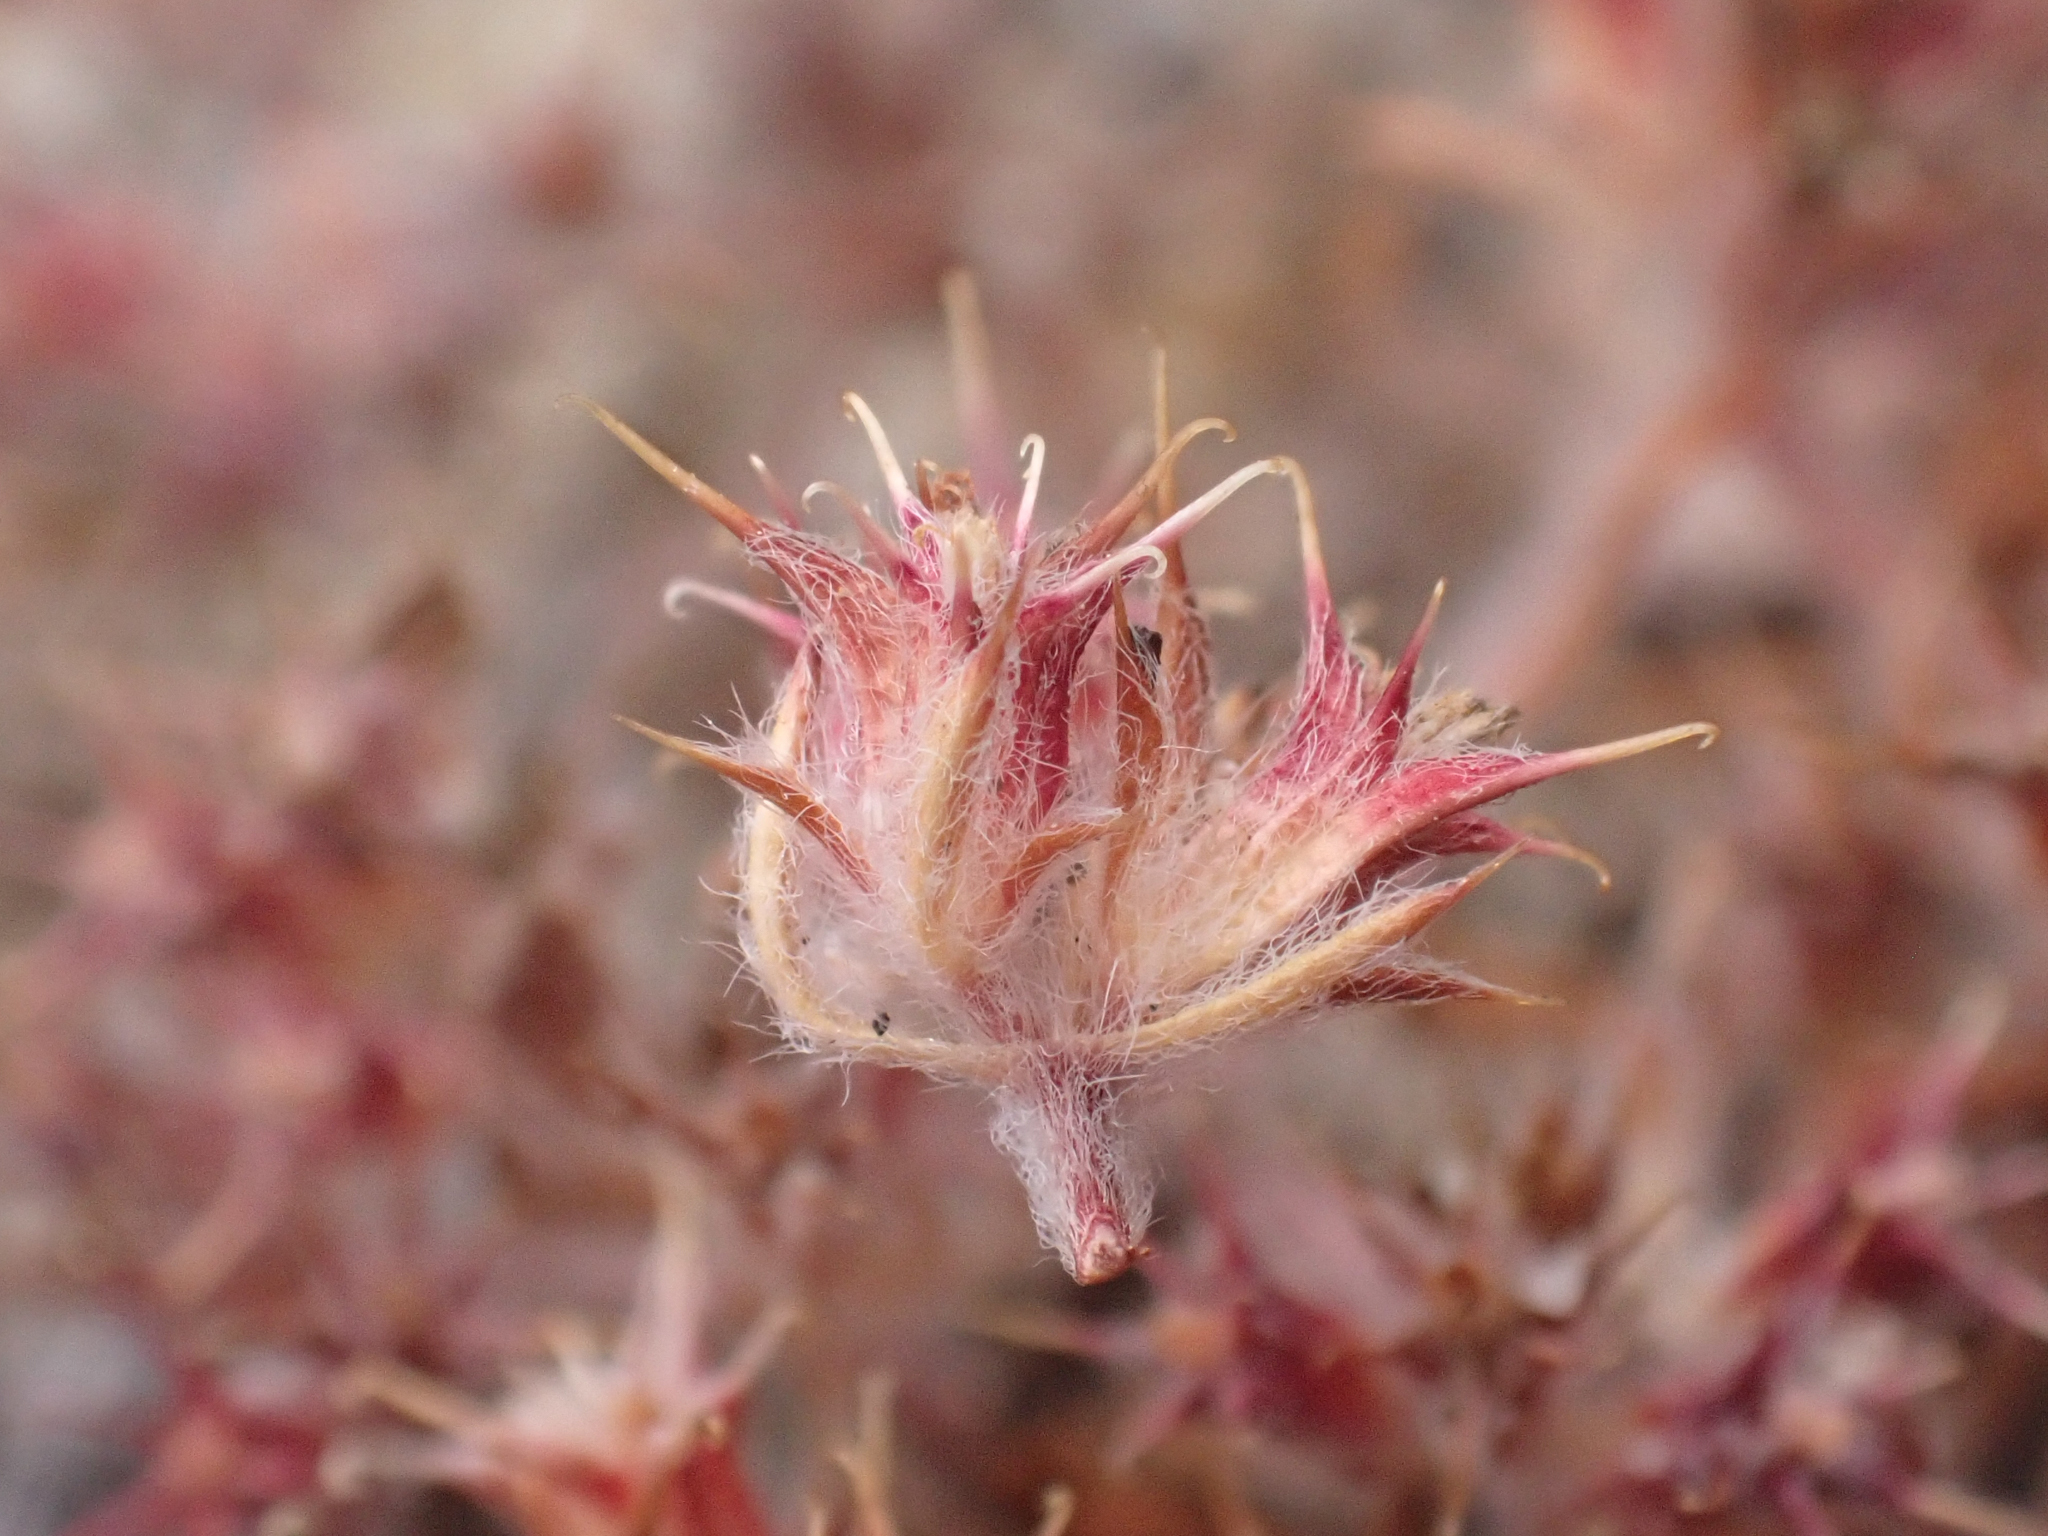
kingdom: Plantae
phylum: Tracheophyta
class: Magnoliopsida
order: Caryophyllales
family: Polygonaceae
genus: Chorizanthe
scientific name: Chorizanthe eastwoodiae
